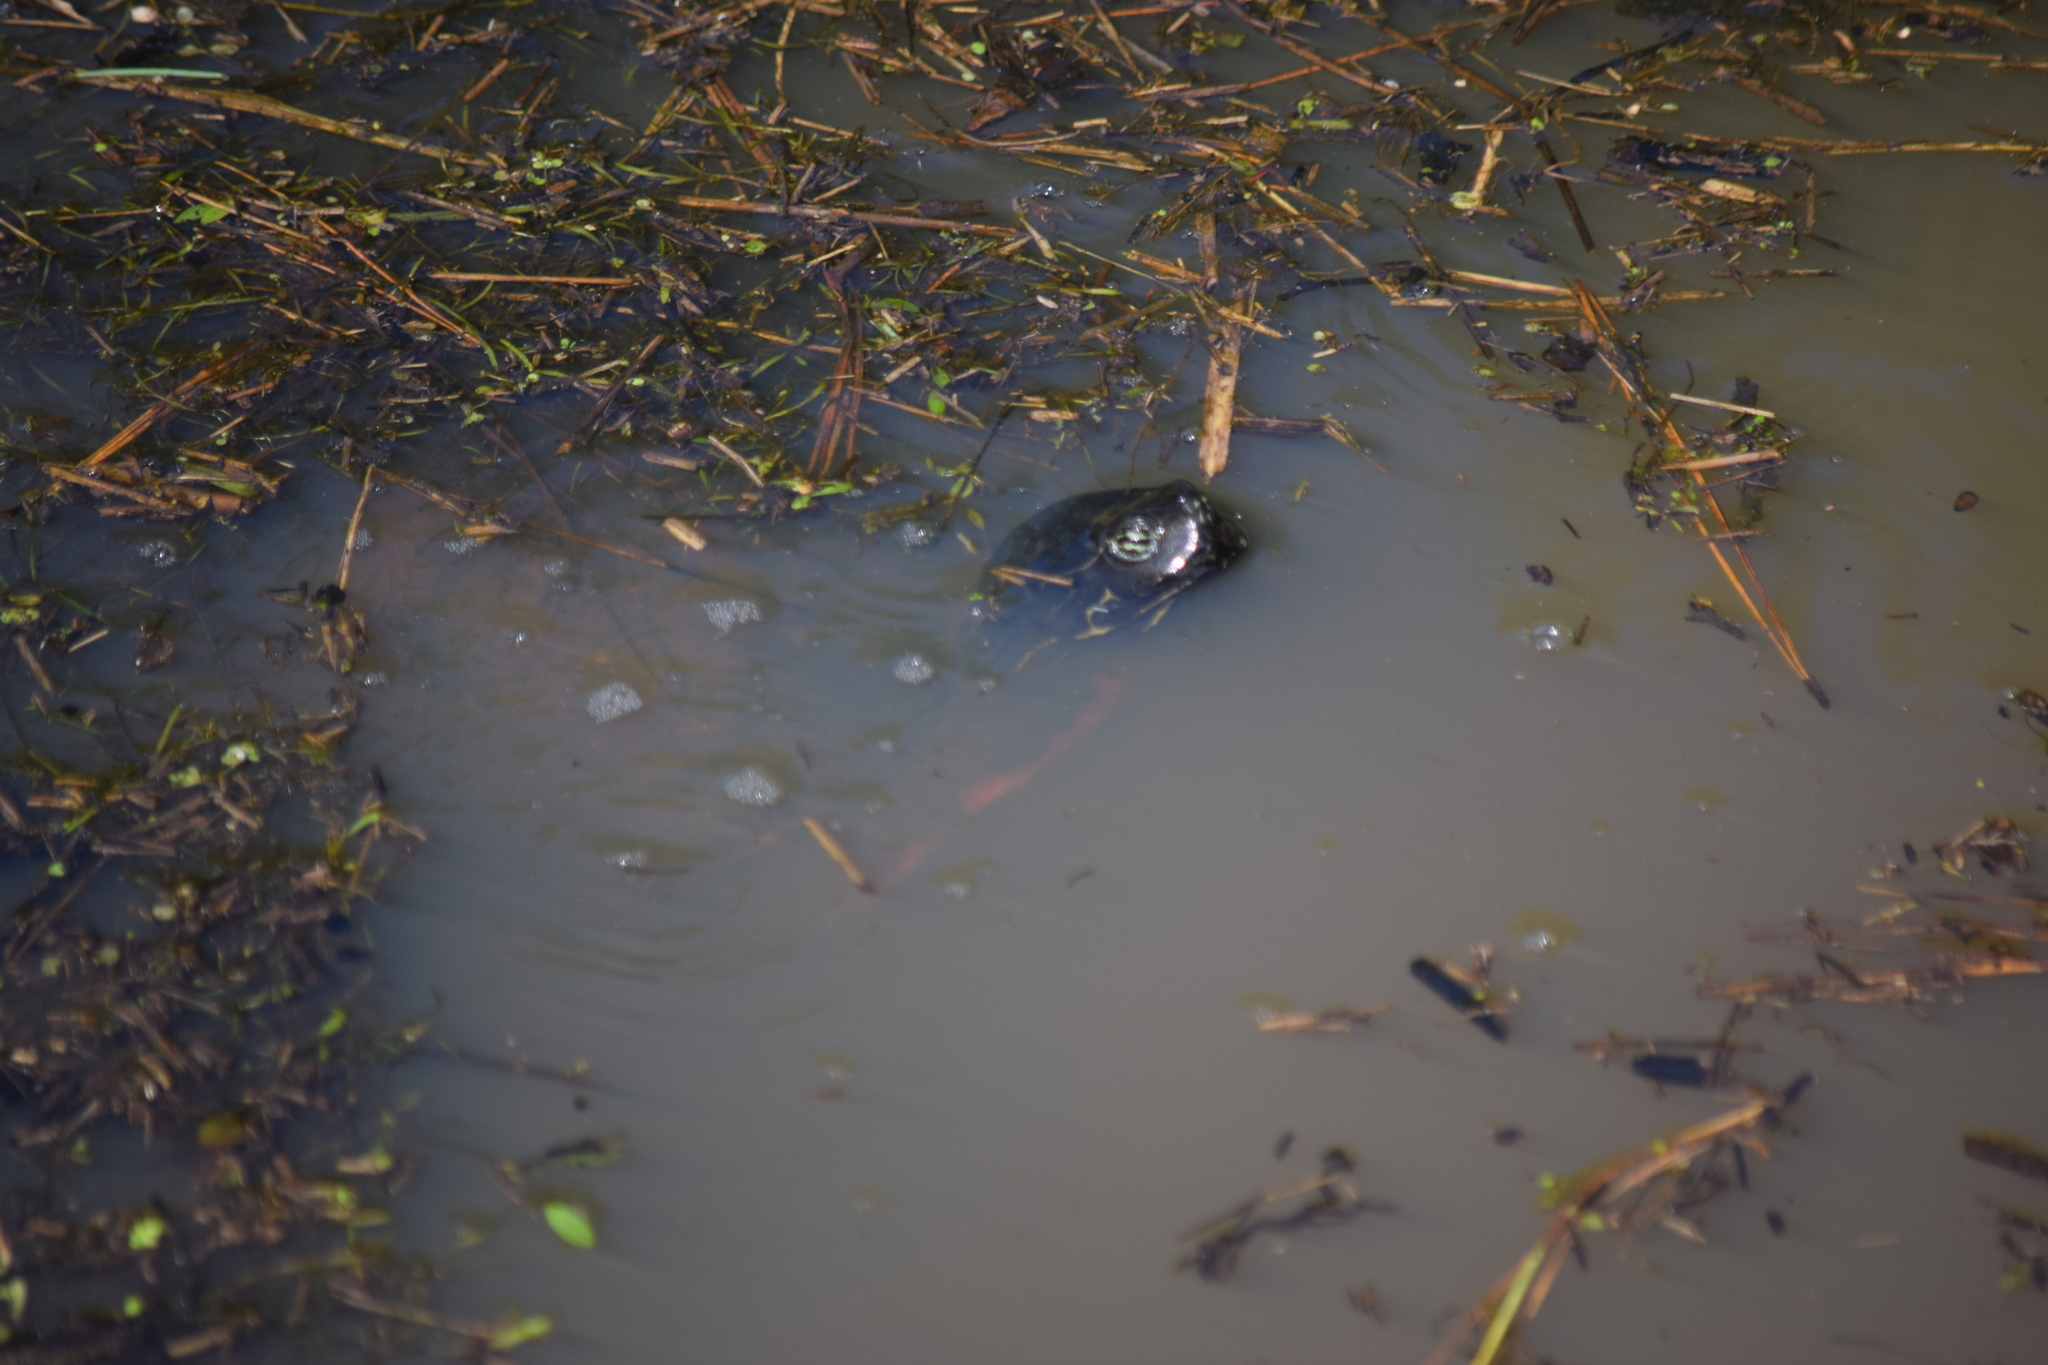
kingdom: Animalia
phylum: Chordata
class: Testudines
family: Emydidae
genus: Pseudemys
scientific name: Pseudemys rubriventris
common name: American red-bellied turtle
